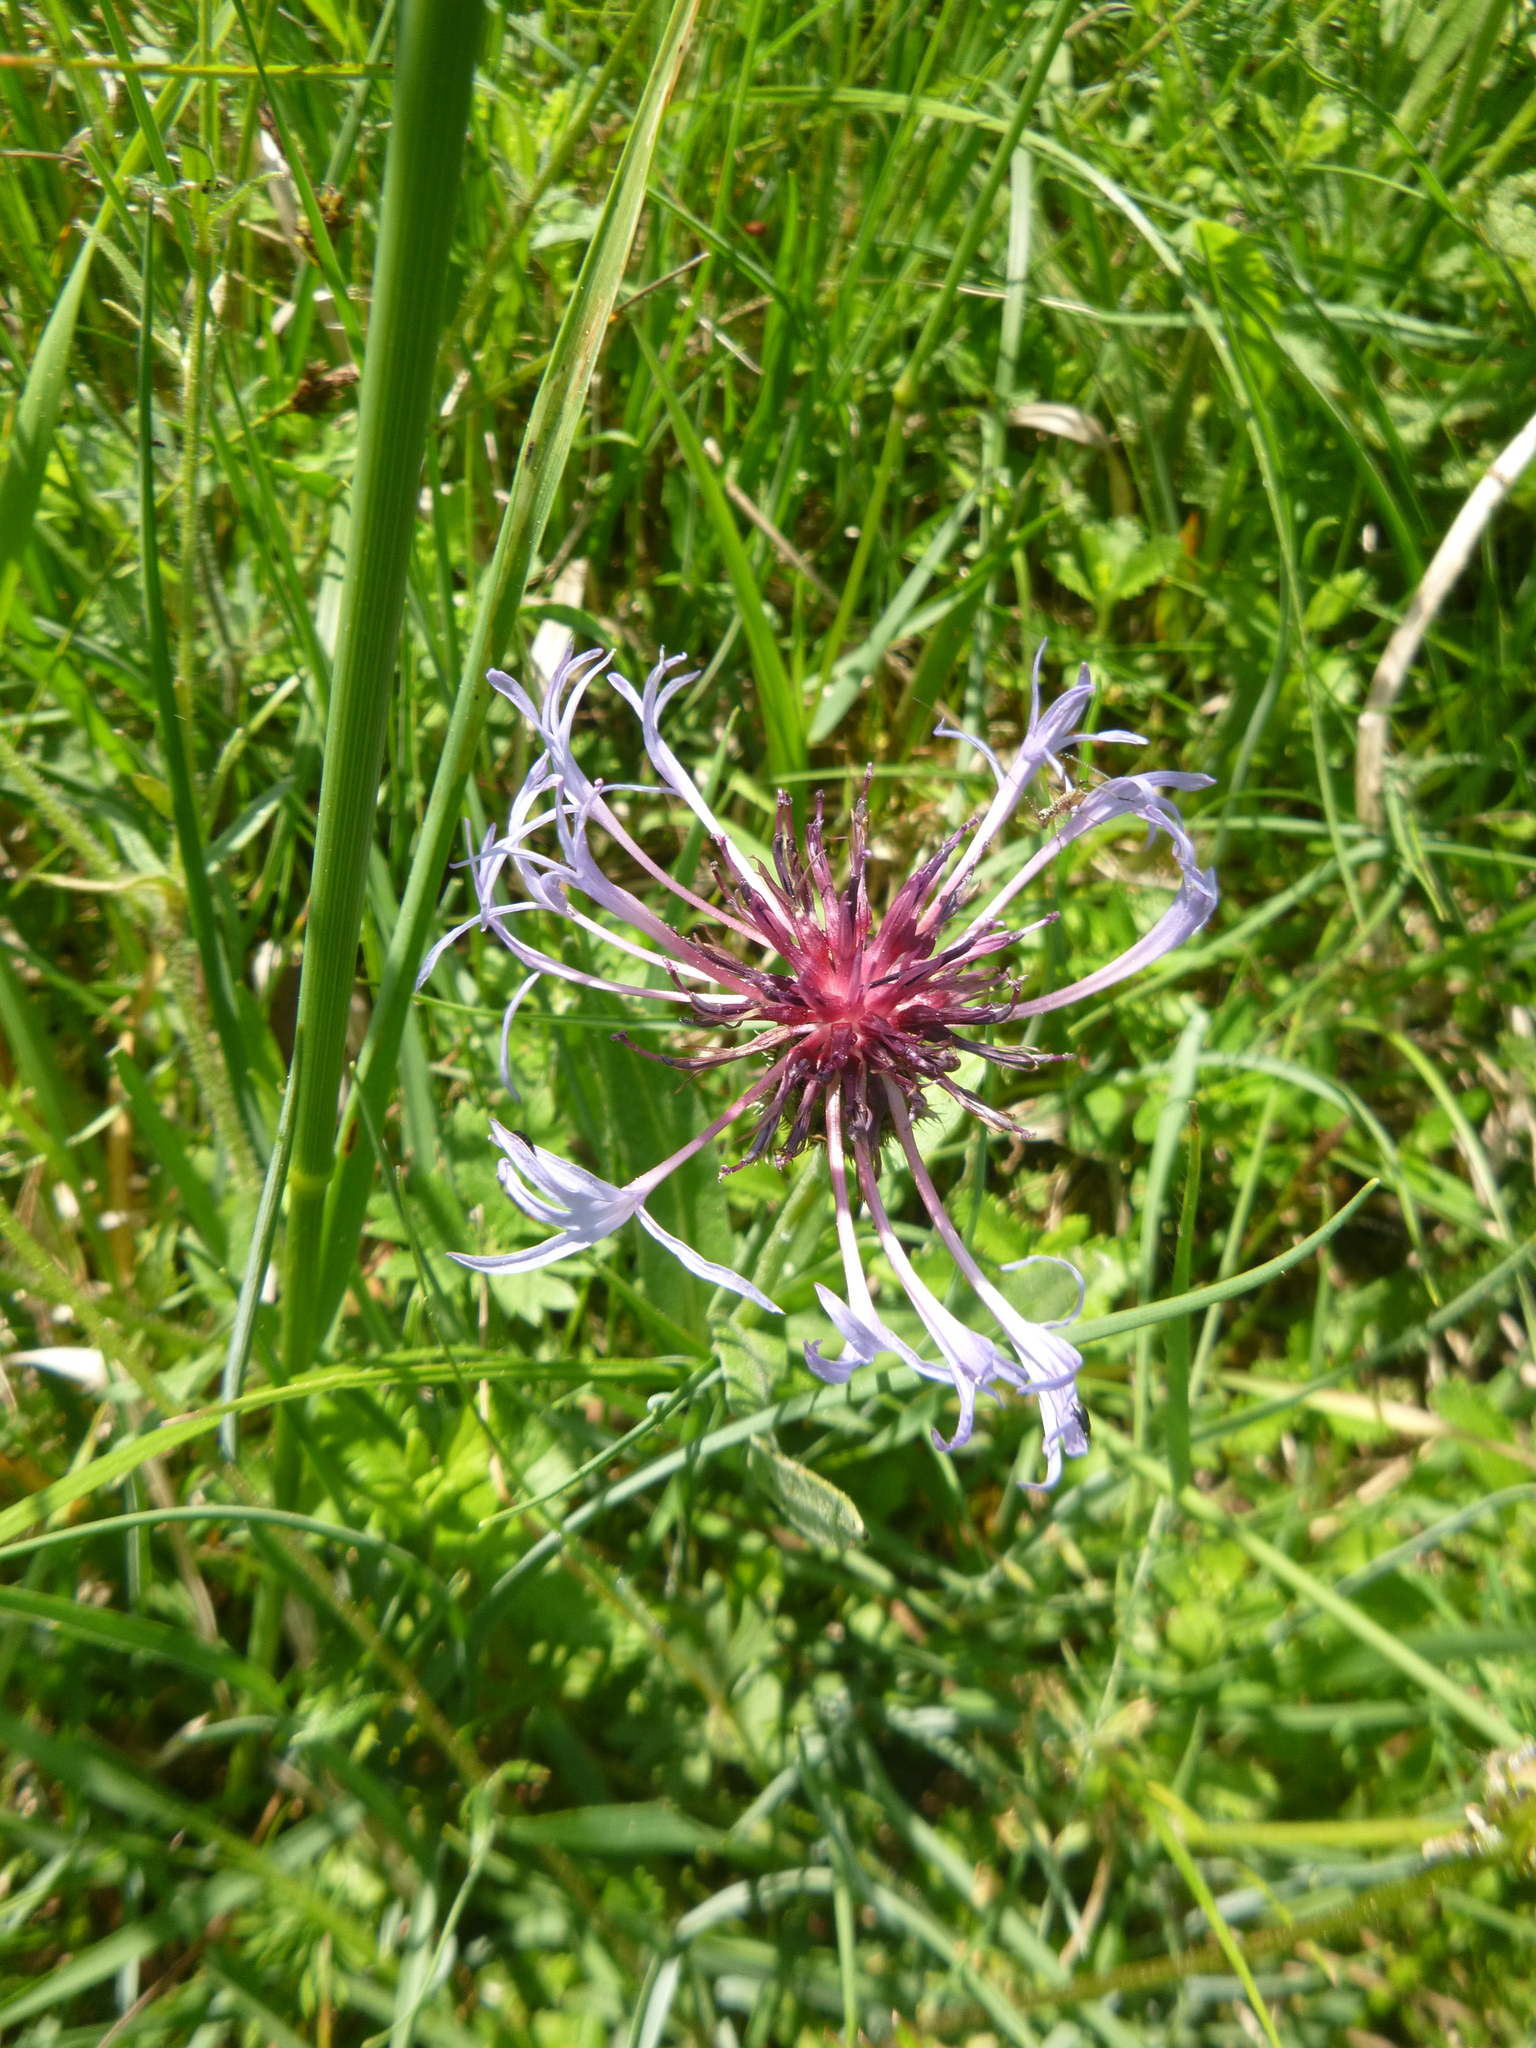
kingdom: Plantae
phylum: Tracheophyta
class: Magnoliopsida
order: Asterales
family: Asteraceae
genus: Centaurea
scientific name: Centaurea triumfettii
